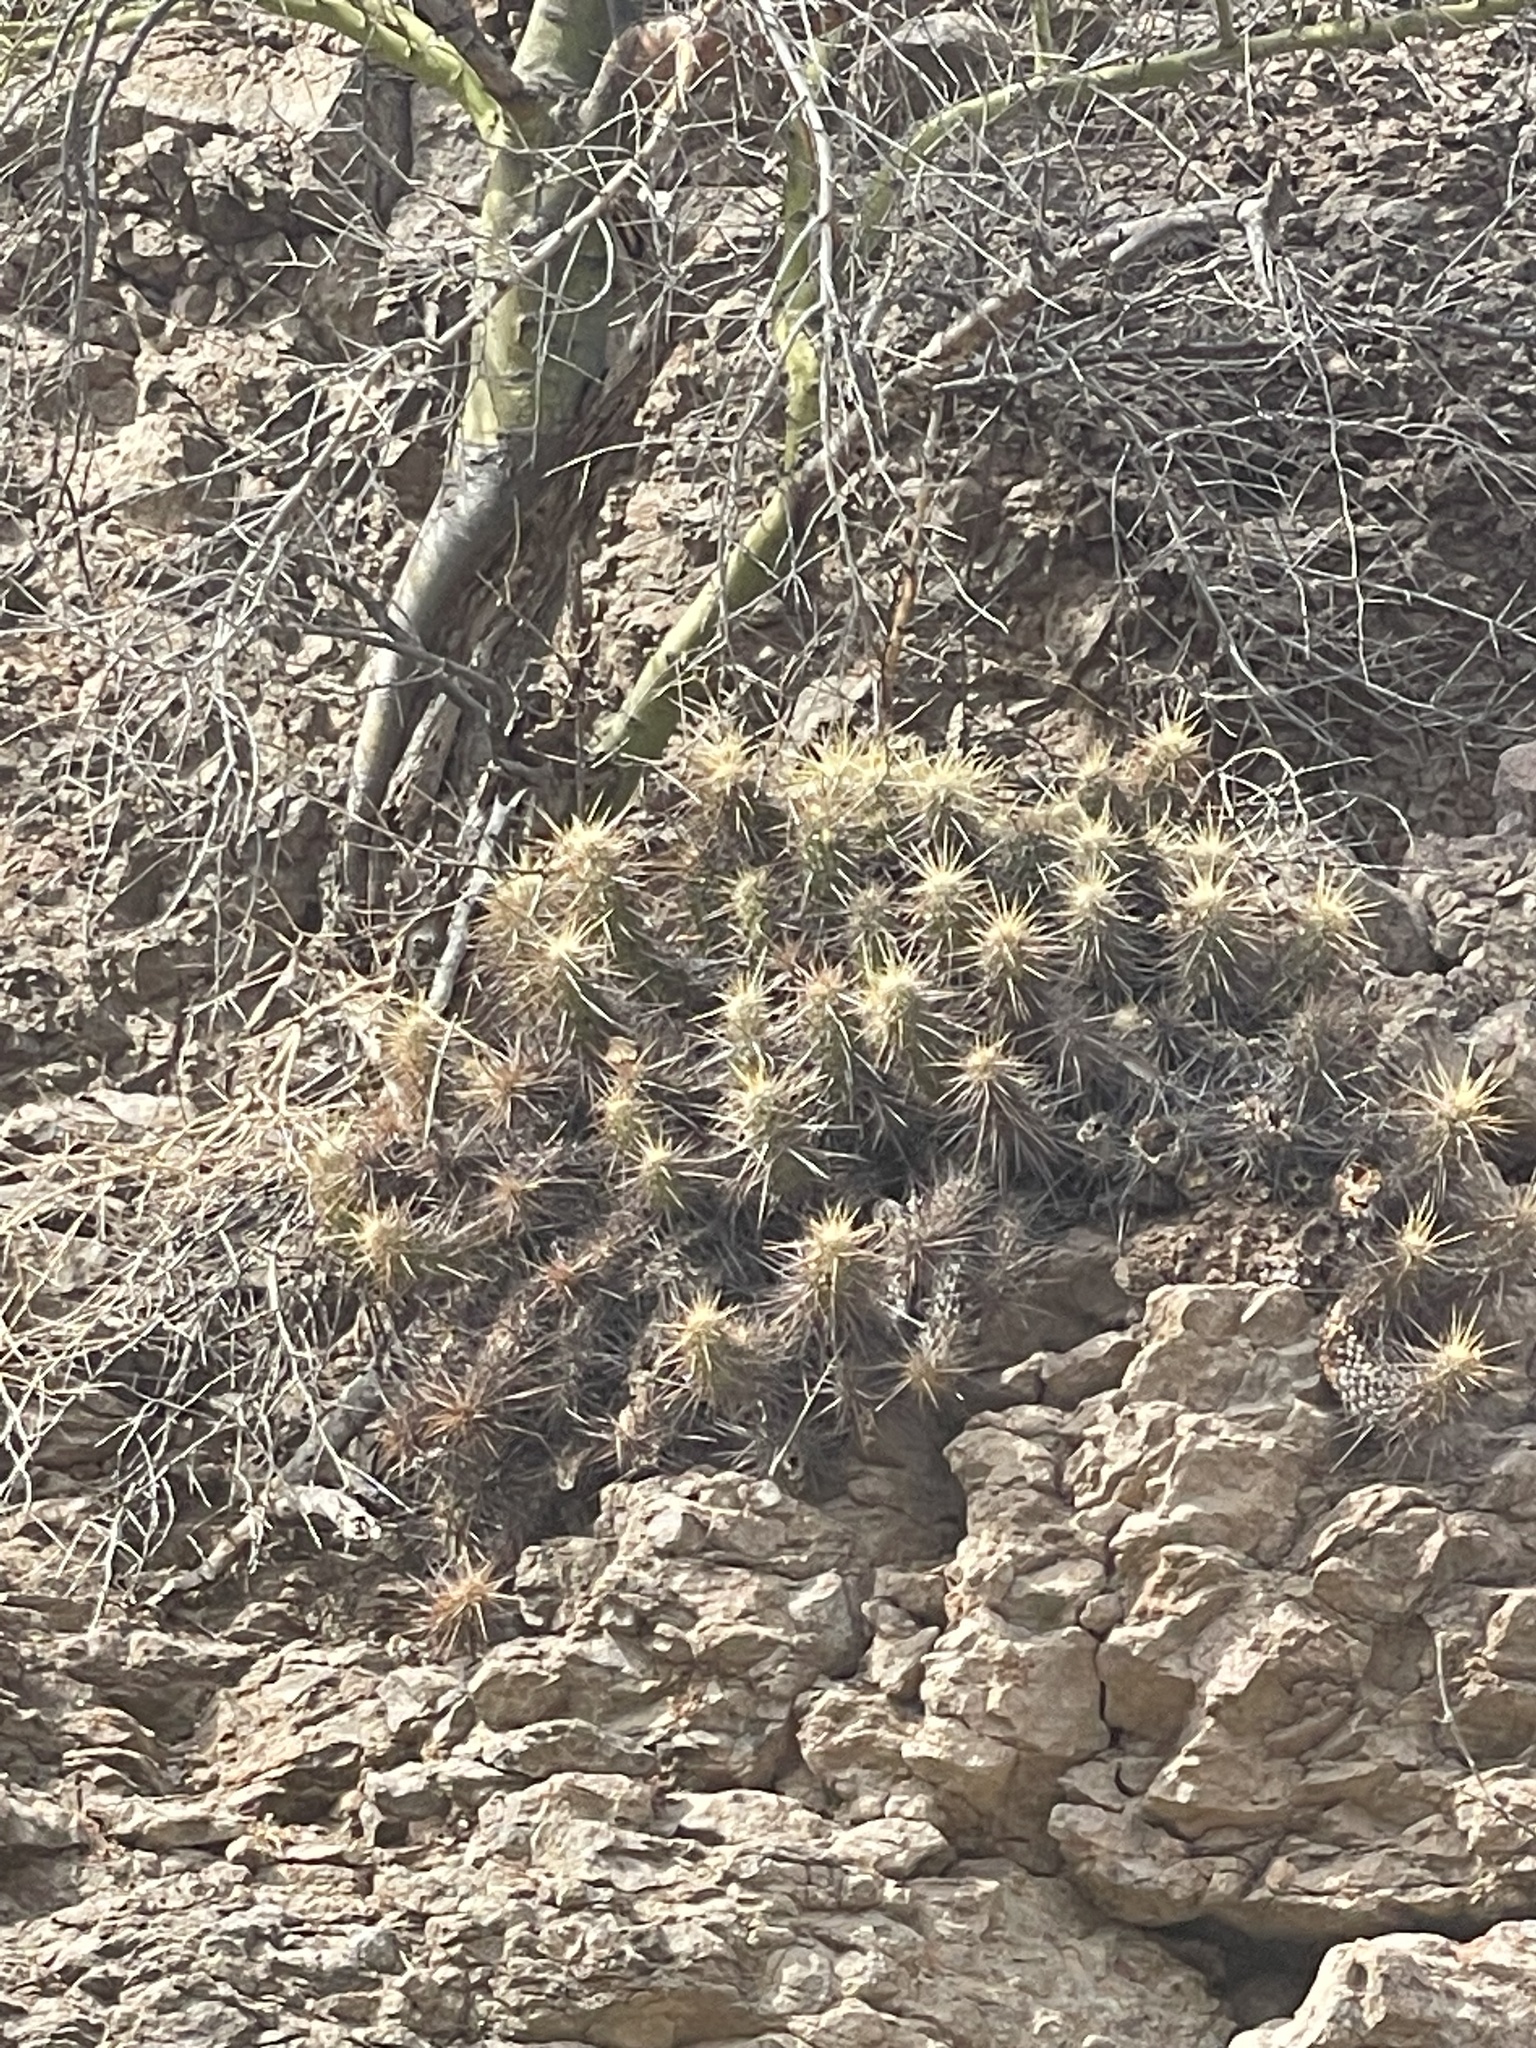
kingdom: Plantae
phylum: Tracheophyta
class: Magnoliopsida
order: Caryophyllales
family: Cactaceae
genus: Echinocereus
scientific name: Echinocereus brandegeei
